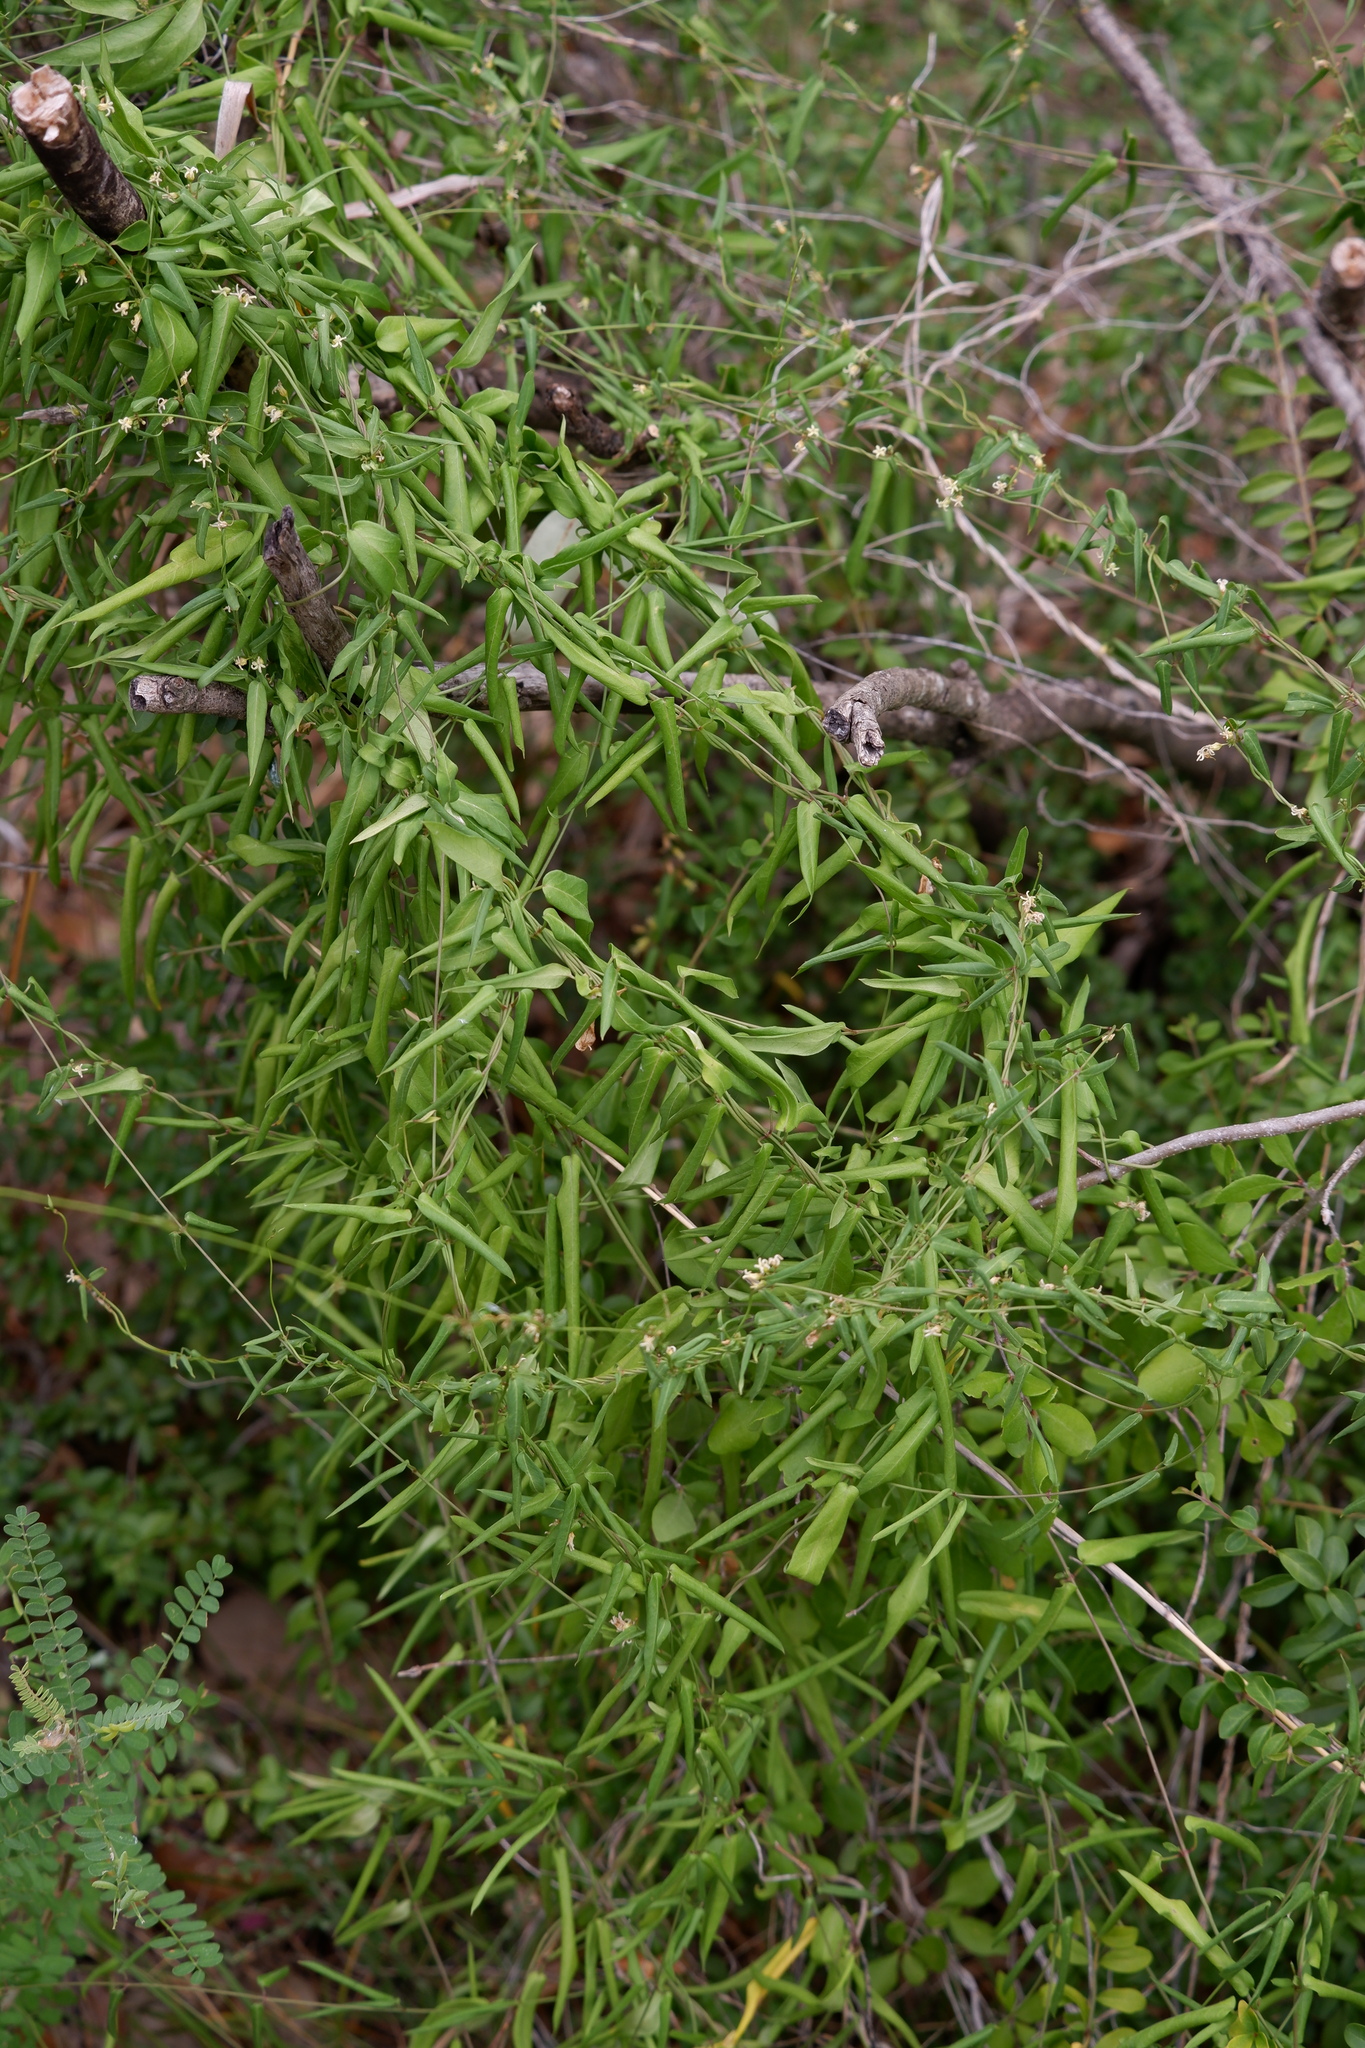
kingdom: Plantae
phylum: Tracheophyta
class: Magnoliopsida
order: Gentianales
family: Apocynaceae
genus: Metastelma
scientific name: Metastelma barbigerum
